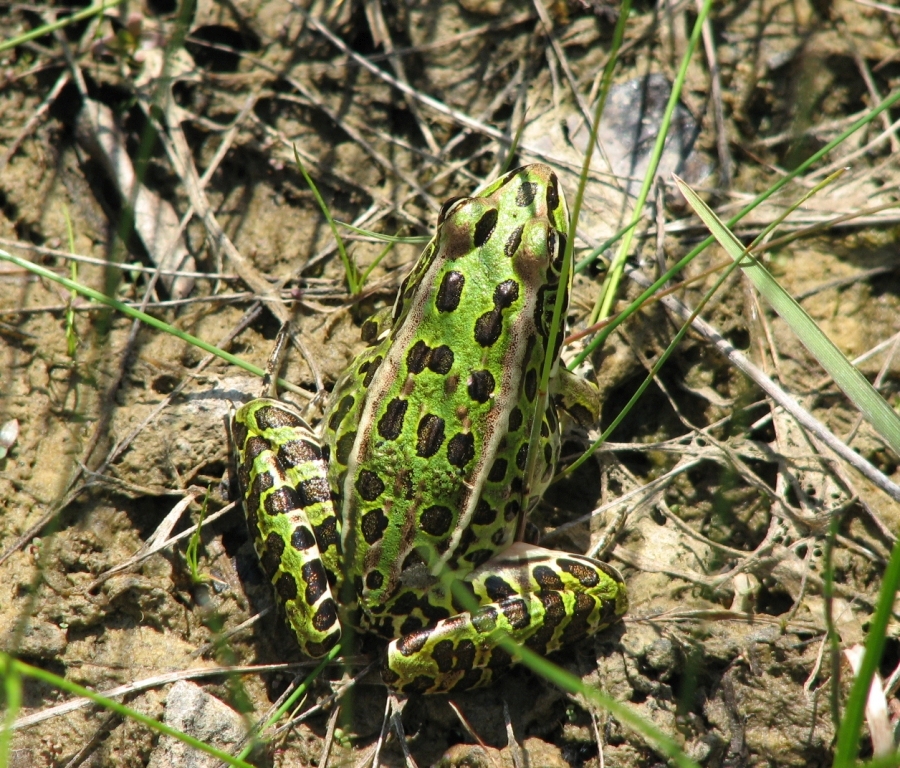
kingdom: Animalia
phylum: Chordata
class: Amphibia
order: Anura
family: Ranidae
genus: Lithobates
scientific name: Lithobates pipiens
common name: Northern leopard frog
